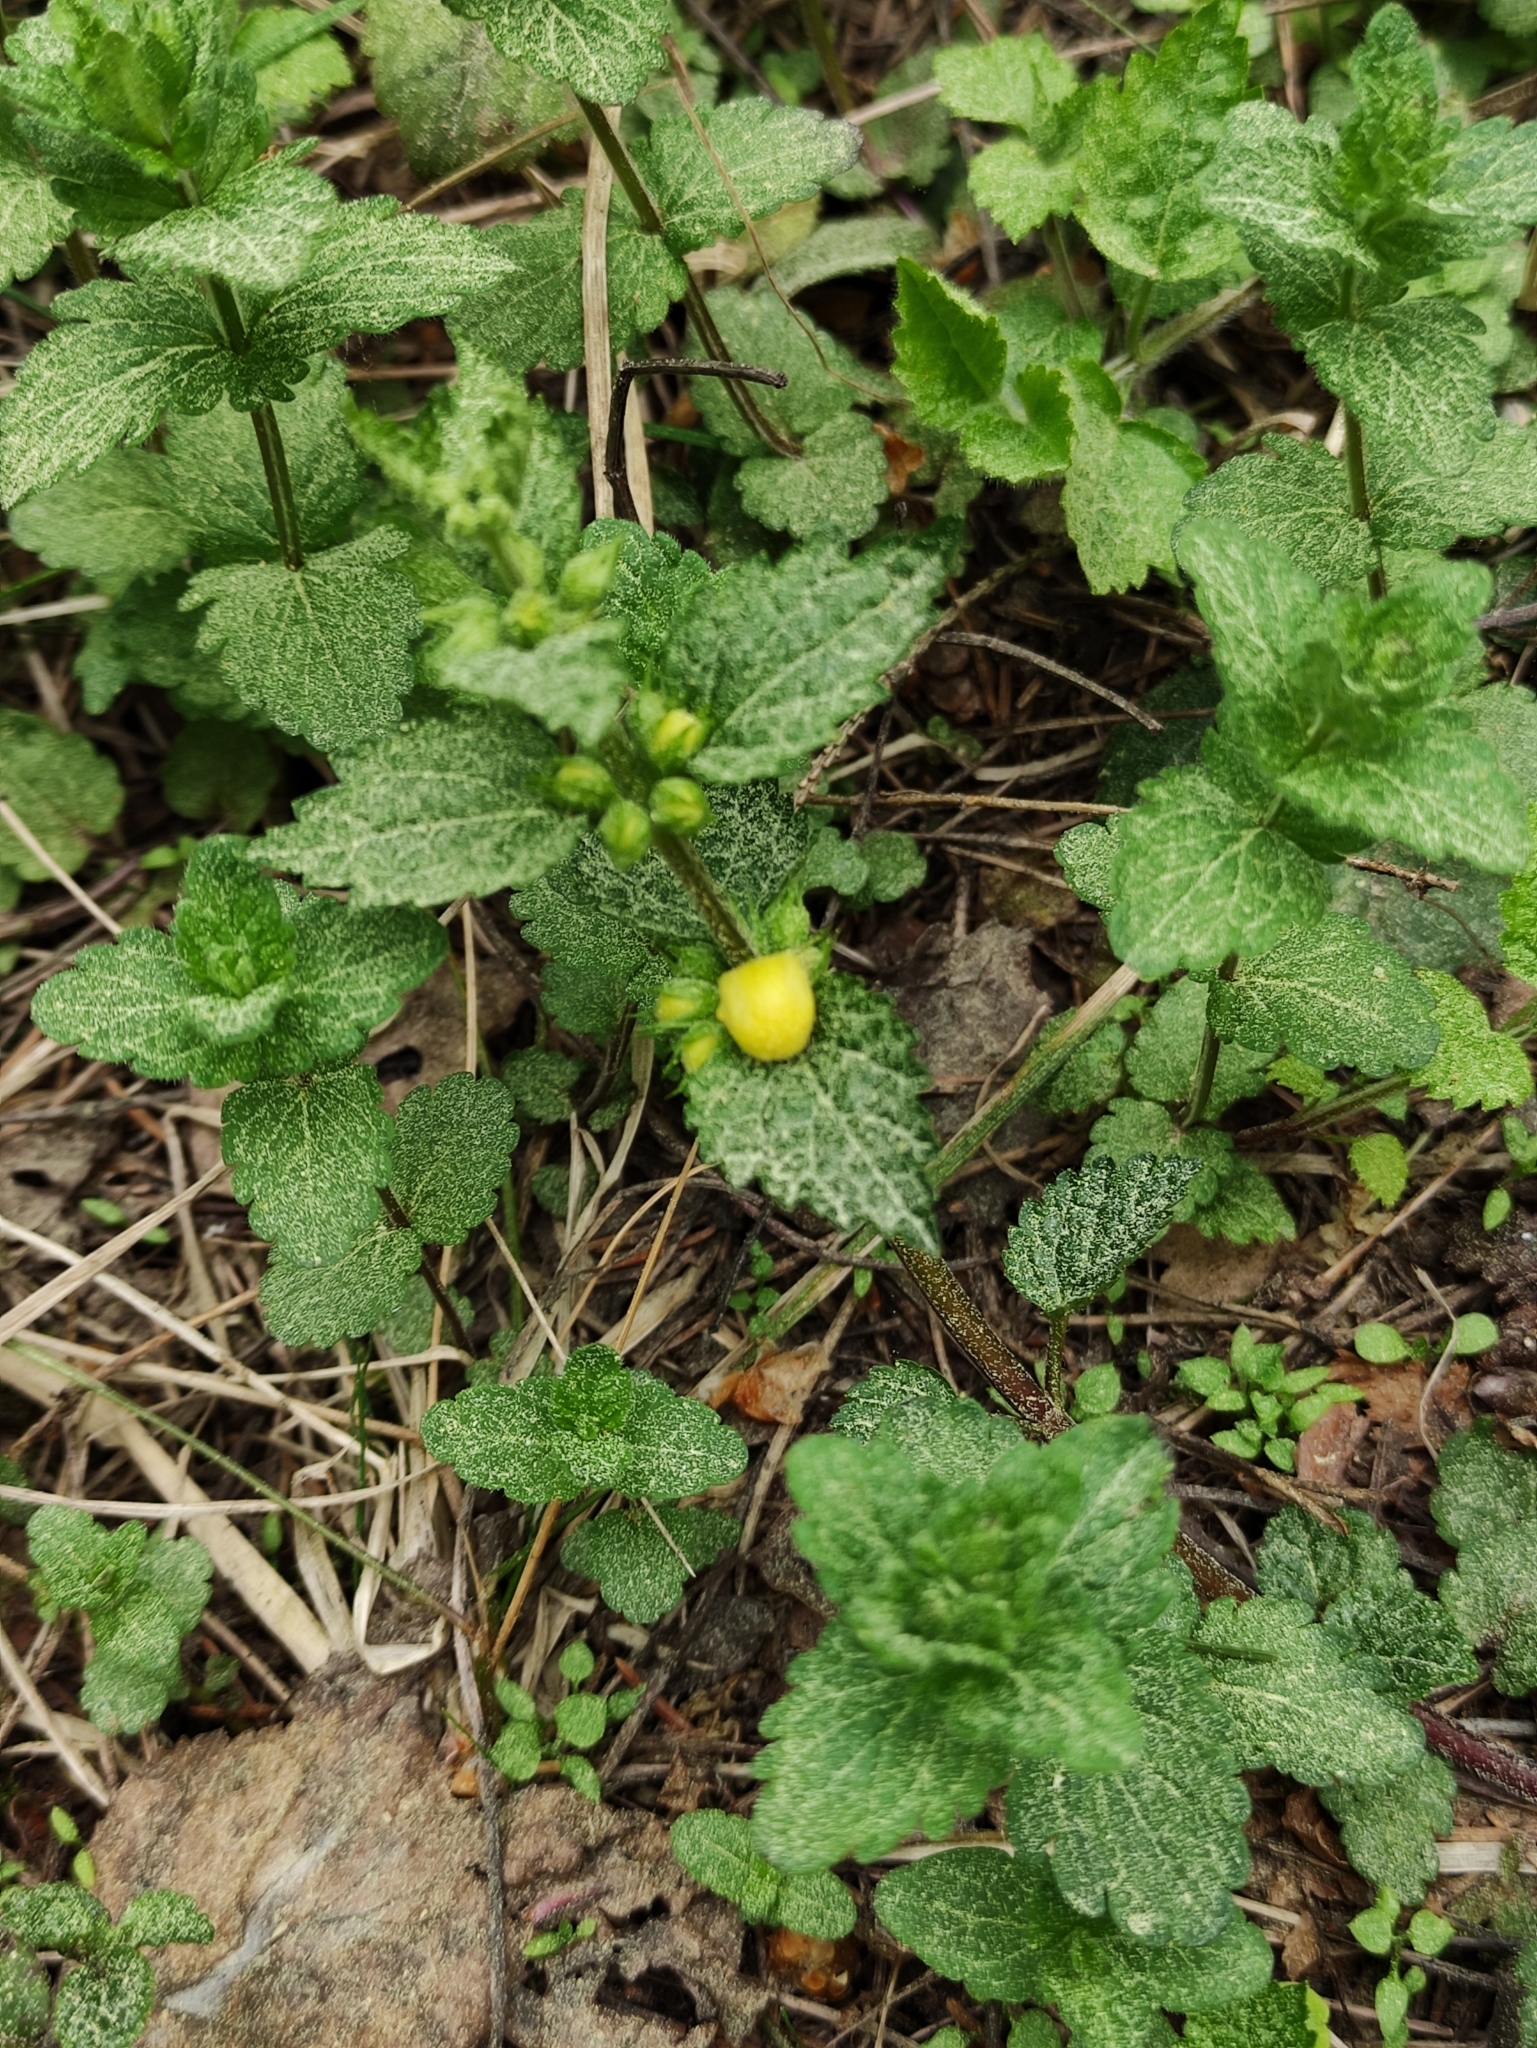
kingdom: Plantae
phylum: Tracheophyta
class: Magnoliopsida
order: Lamiales
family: Lamiaceae
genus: Lamium
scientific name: Lamium galeobdolon
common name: Yellow archangel
